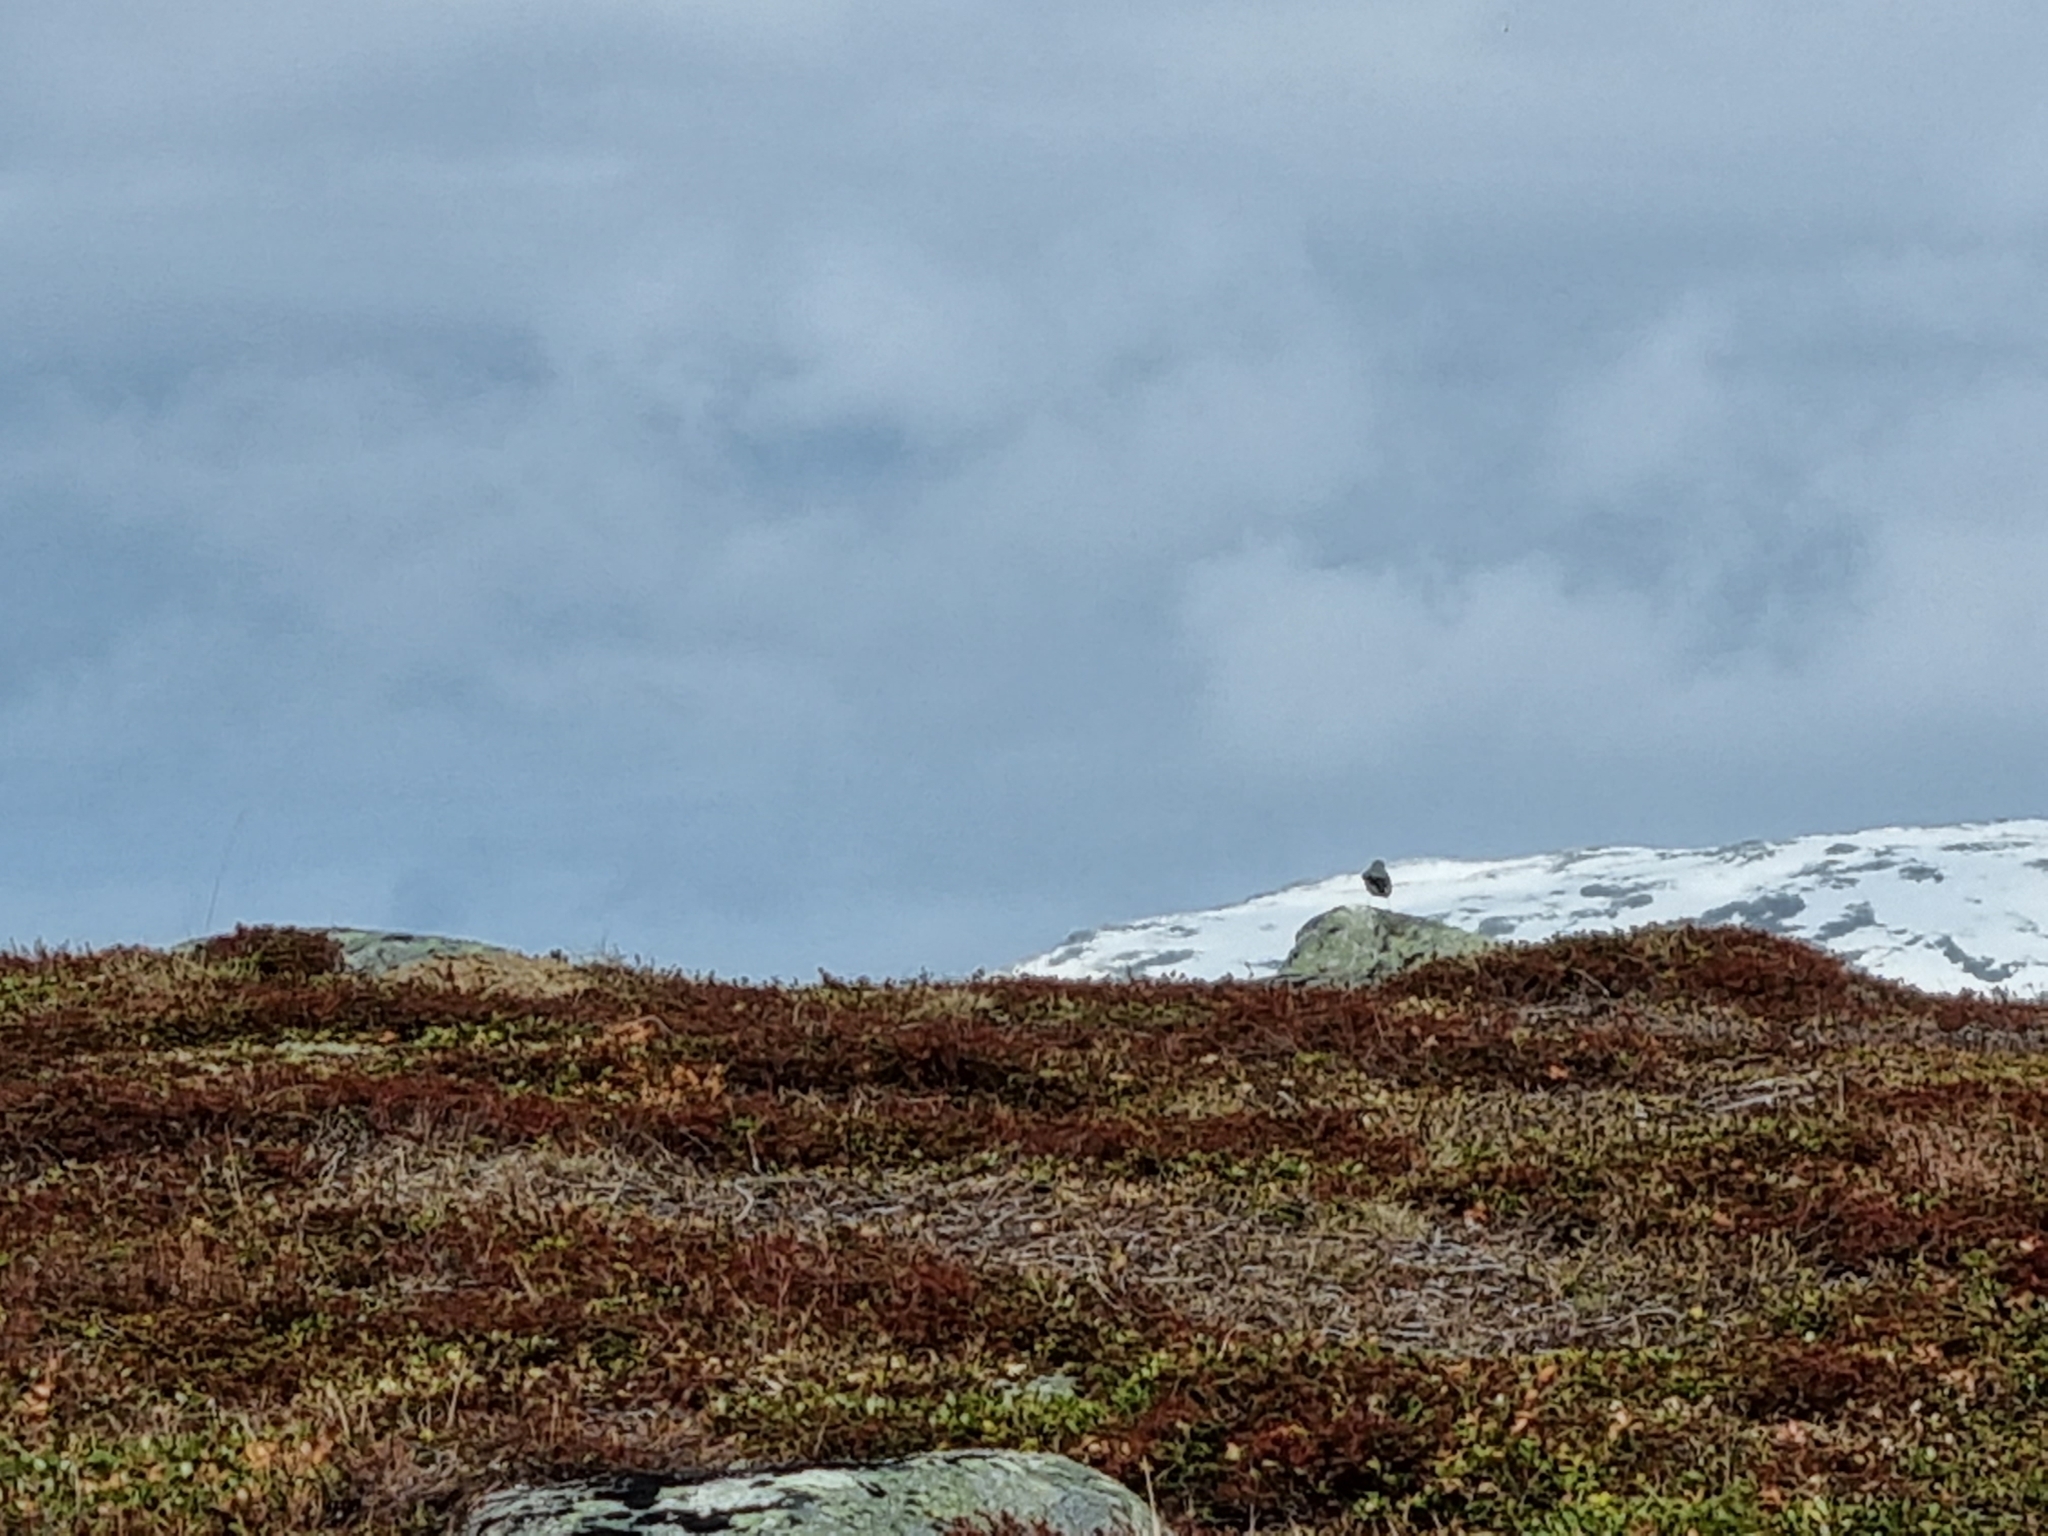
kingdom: Animalia
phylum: Chordata
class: Aves
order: Passeriformes
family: Muscicapidae
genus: Oenanthe
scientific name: Oenanthe oenanthe
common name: Northern wheatear
